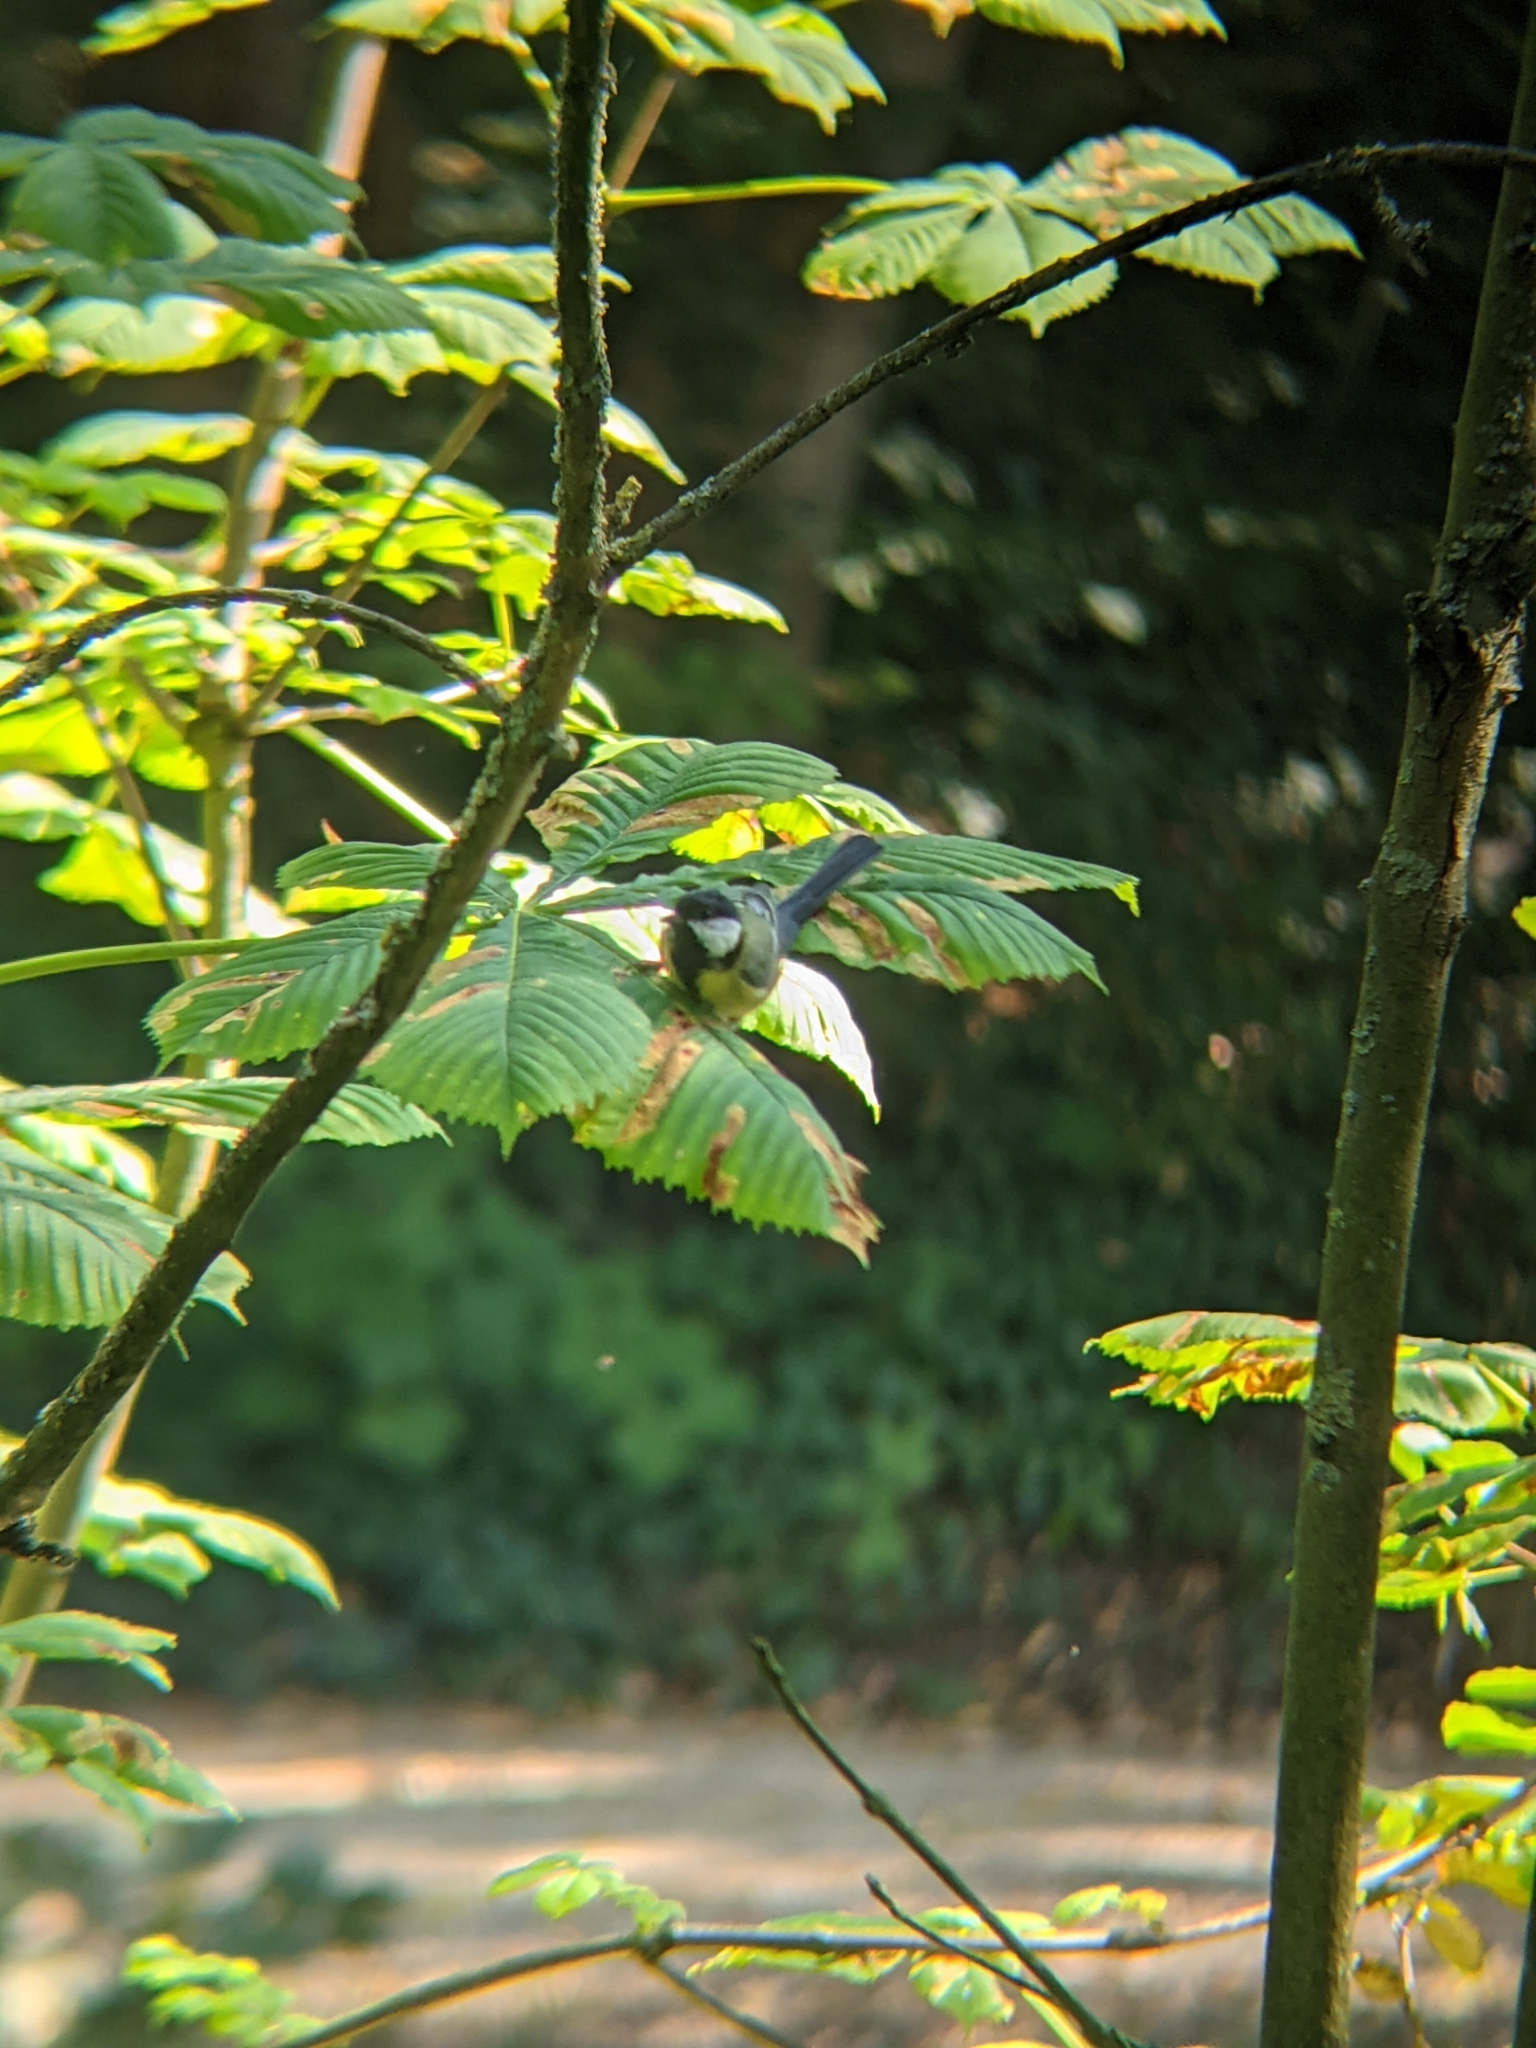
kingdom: Animalia
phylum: Chordata
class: Aves
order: Passeriformes
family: Paridae
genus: Parus
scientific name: Parus major
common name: Great tit
